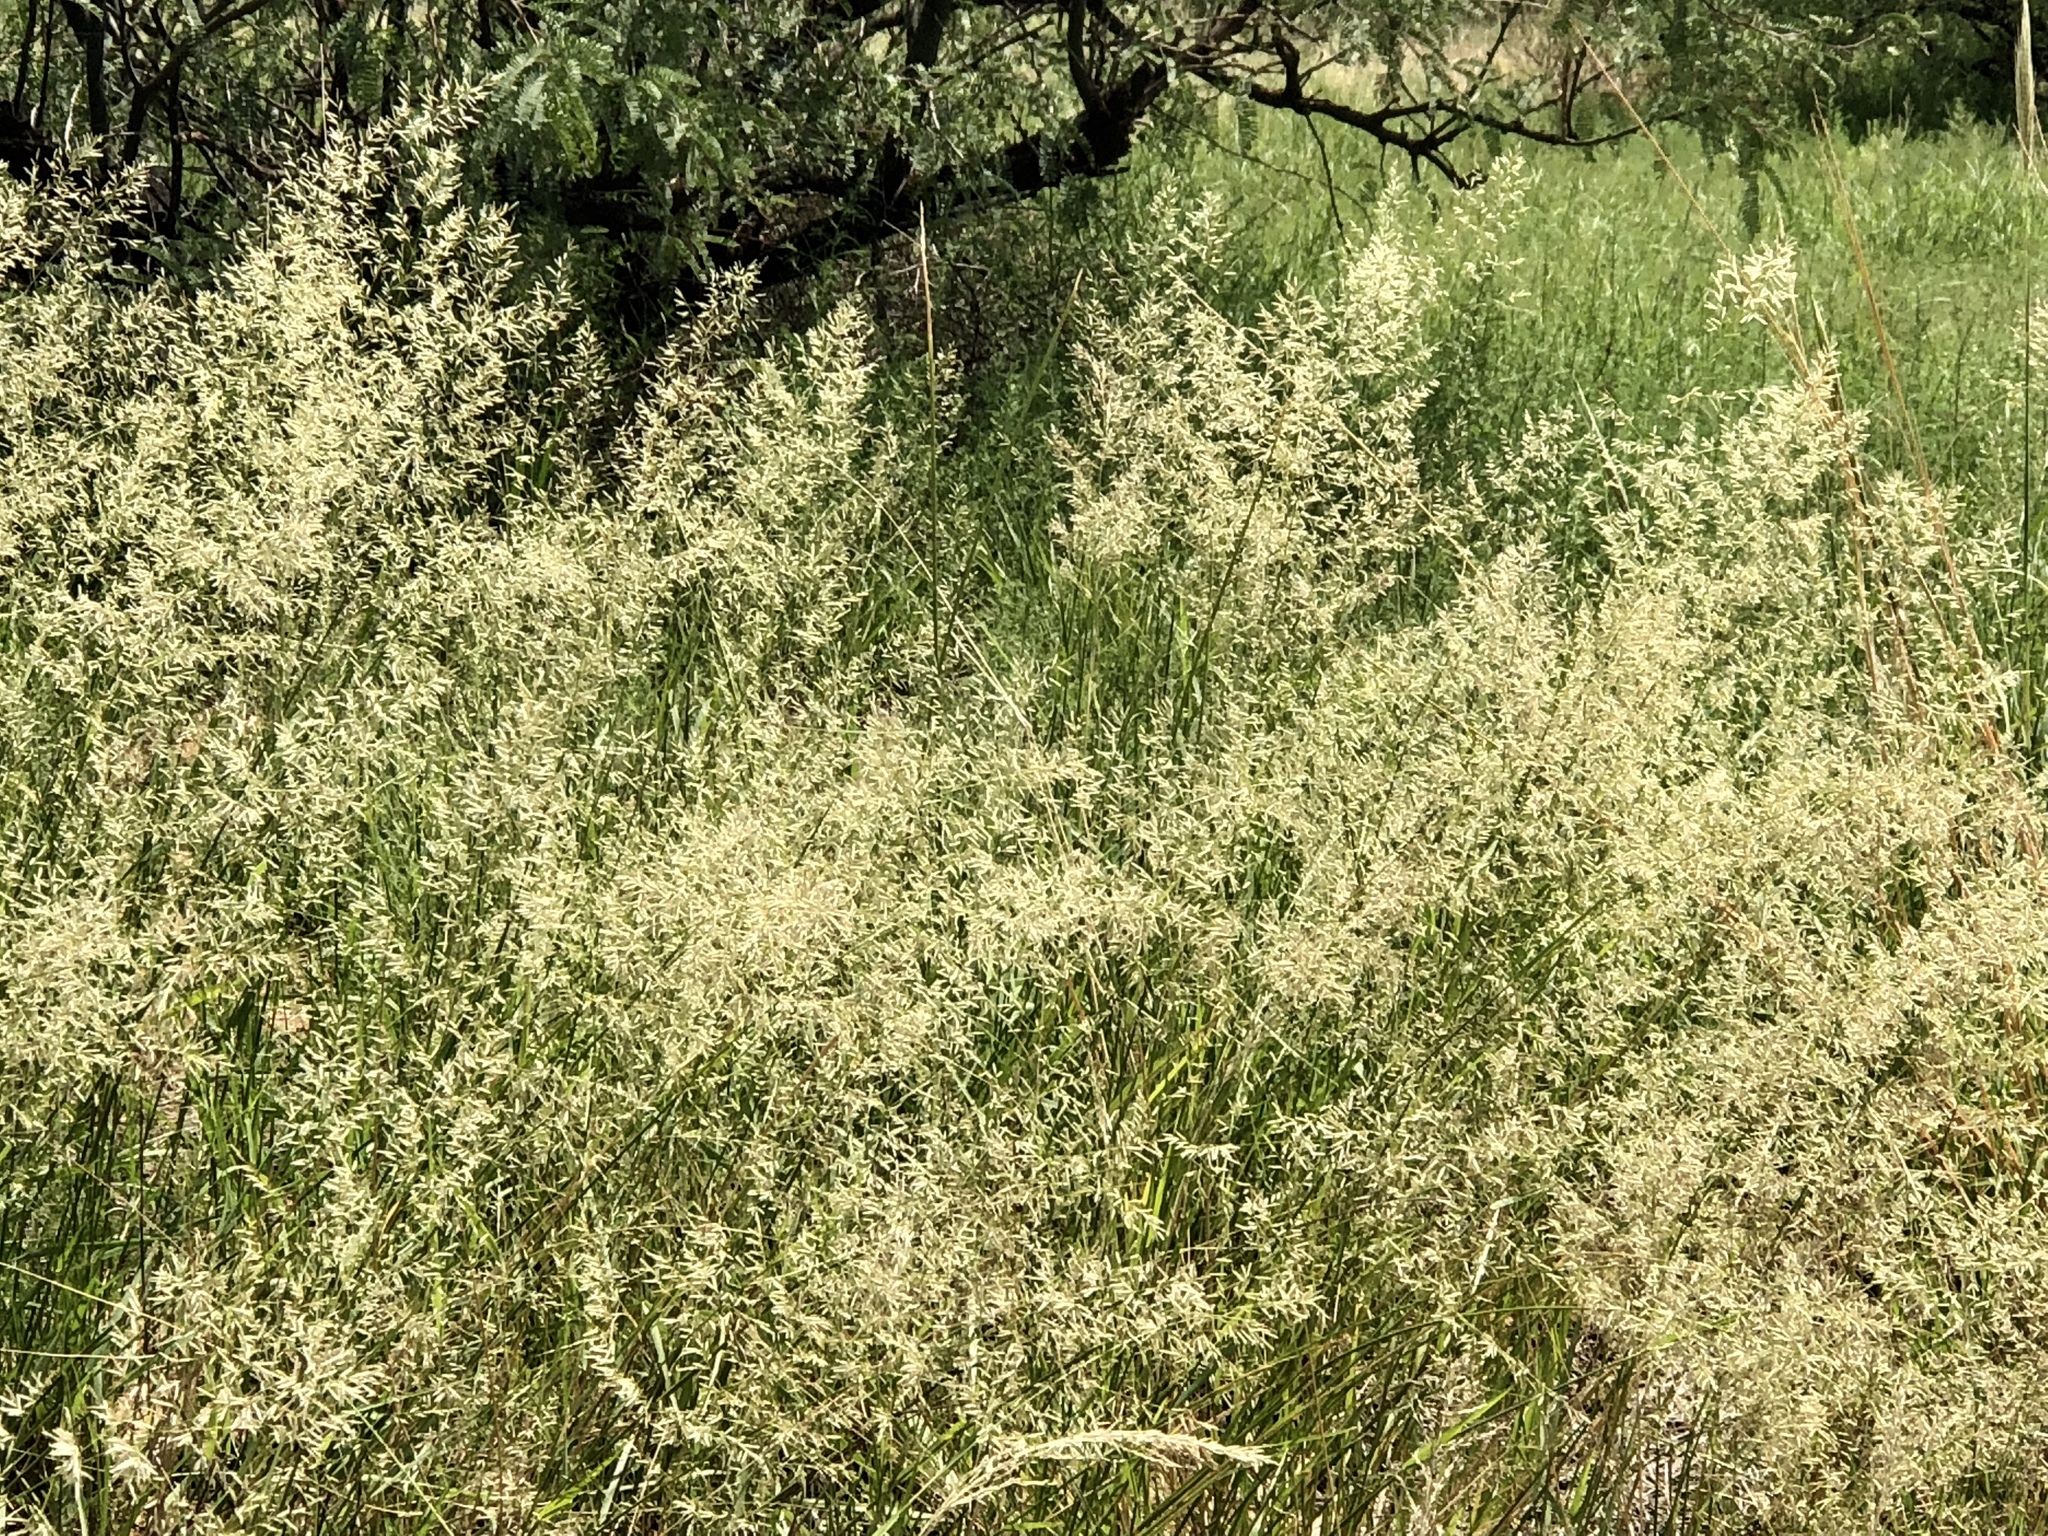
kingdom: Plantae
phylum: Tracheophyta
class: Liliopsida
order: Poales
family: Poaceae
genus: Melinis
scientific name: Melinis repens
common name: Rose natal grass
